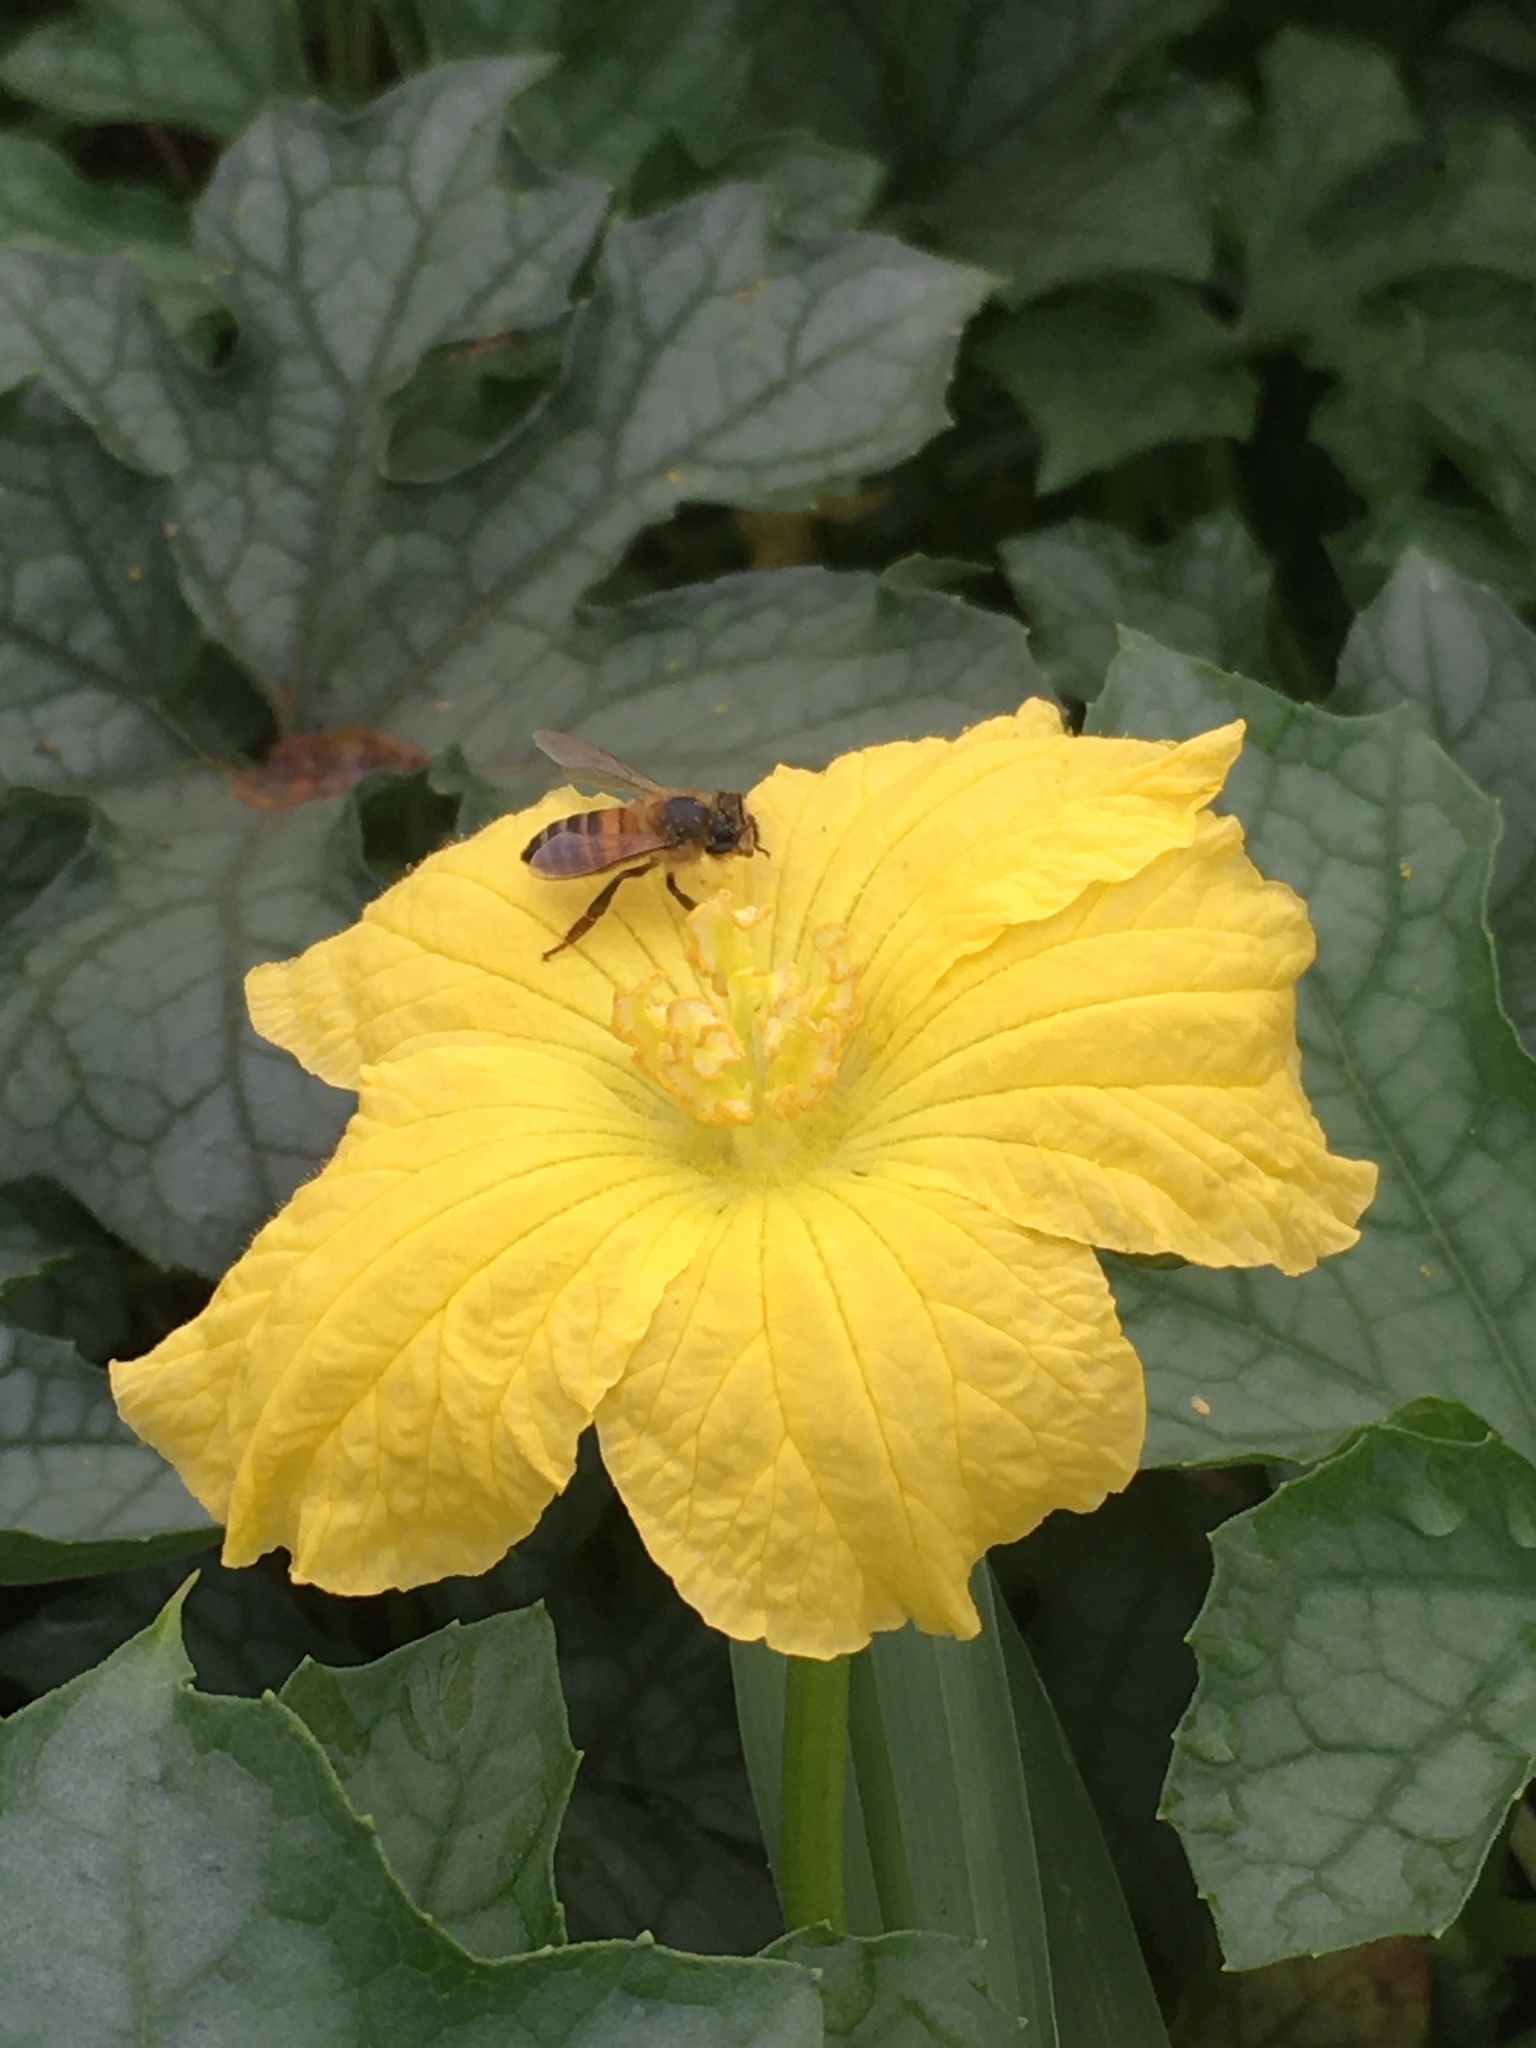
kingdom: Animalia
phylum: Arthropoda
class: Insecta
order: Hymenoptera
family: Apidae
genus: Apis
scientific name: Apis mellifera
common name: Honey bee
